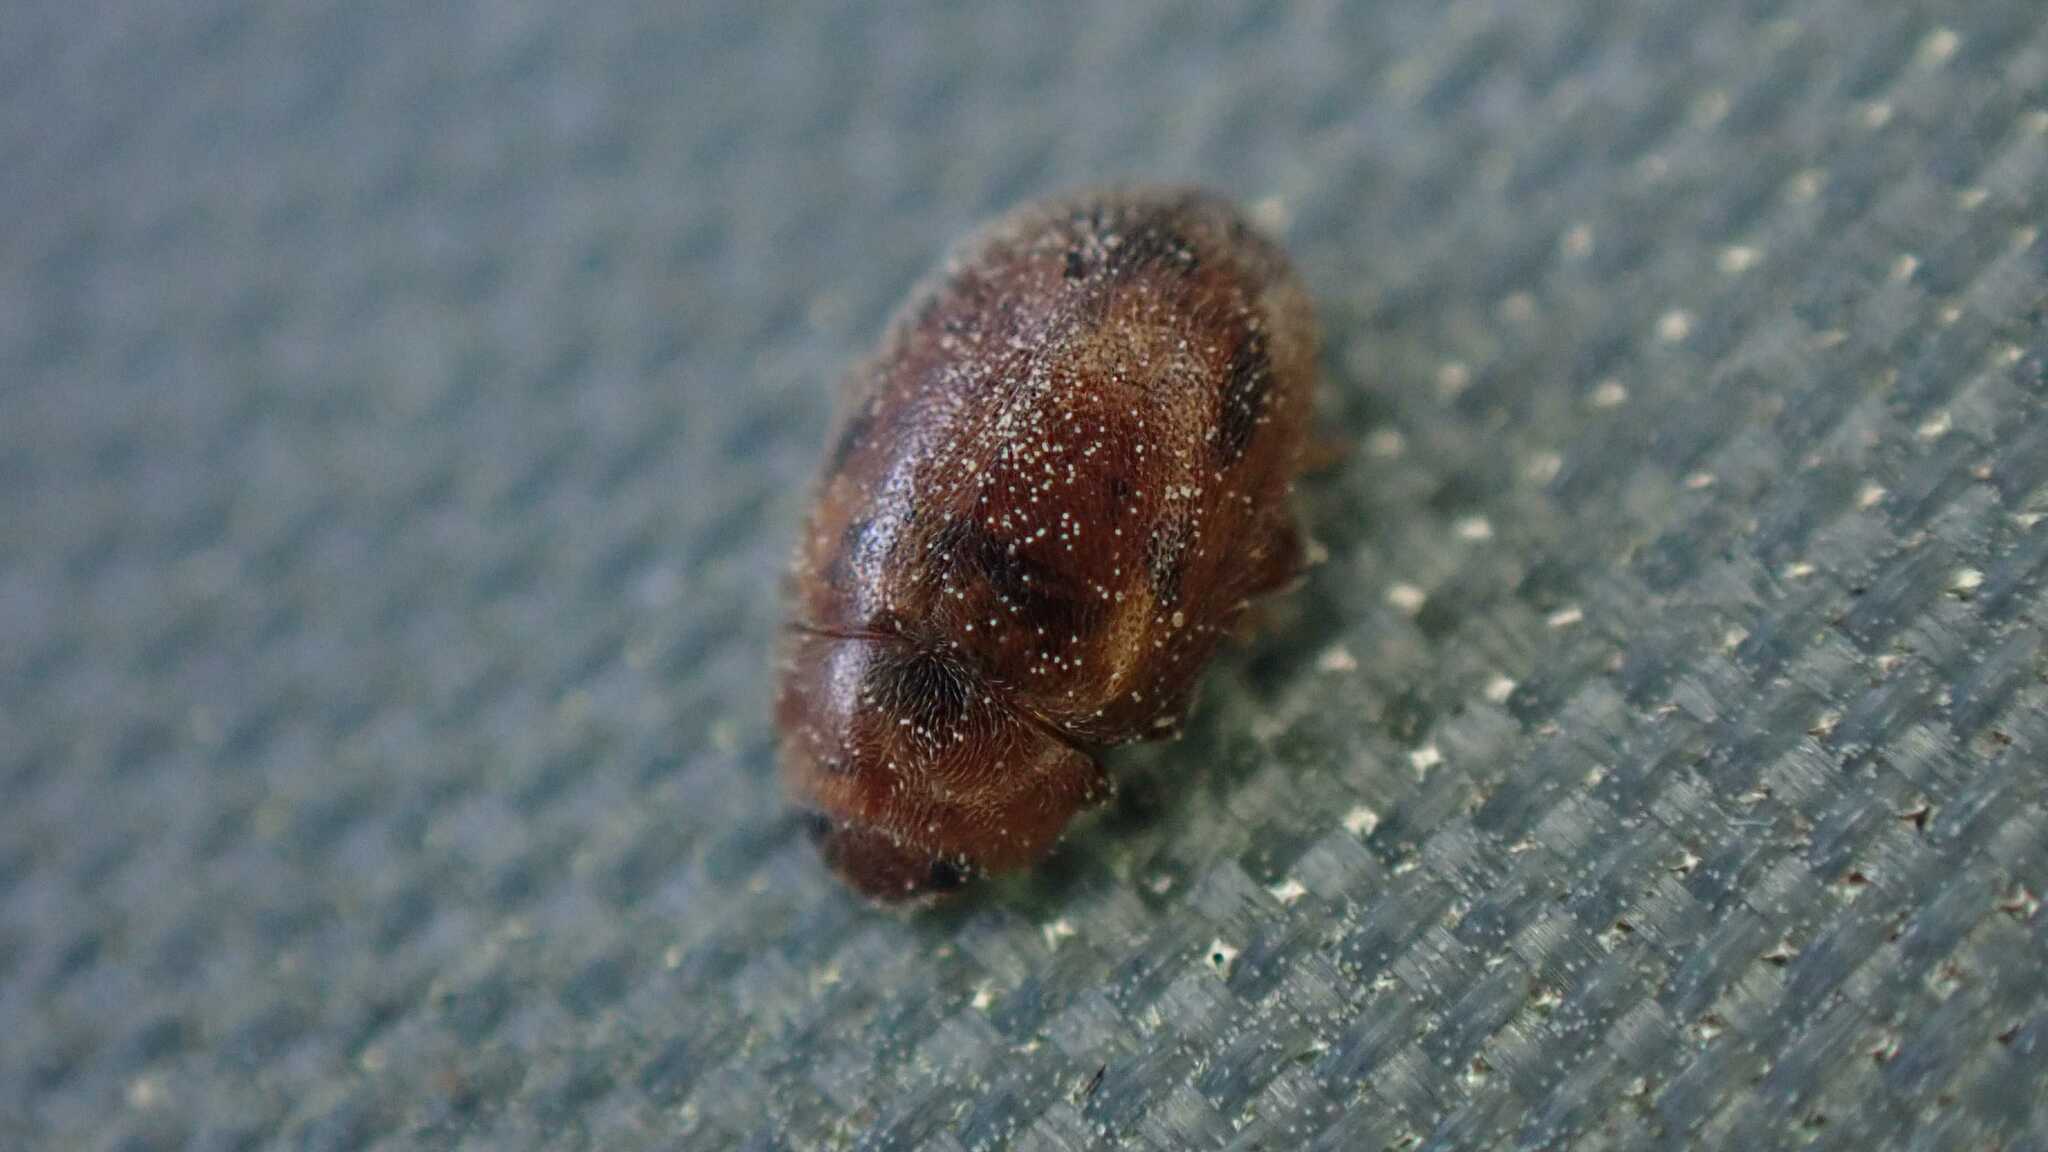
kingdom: Animalia
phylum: Arthropoda
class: Insecta
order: Coleoptera
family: Coccinellidae
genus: Rhyzobius
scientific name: Rhyzobius chrysomeloides
